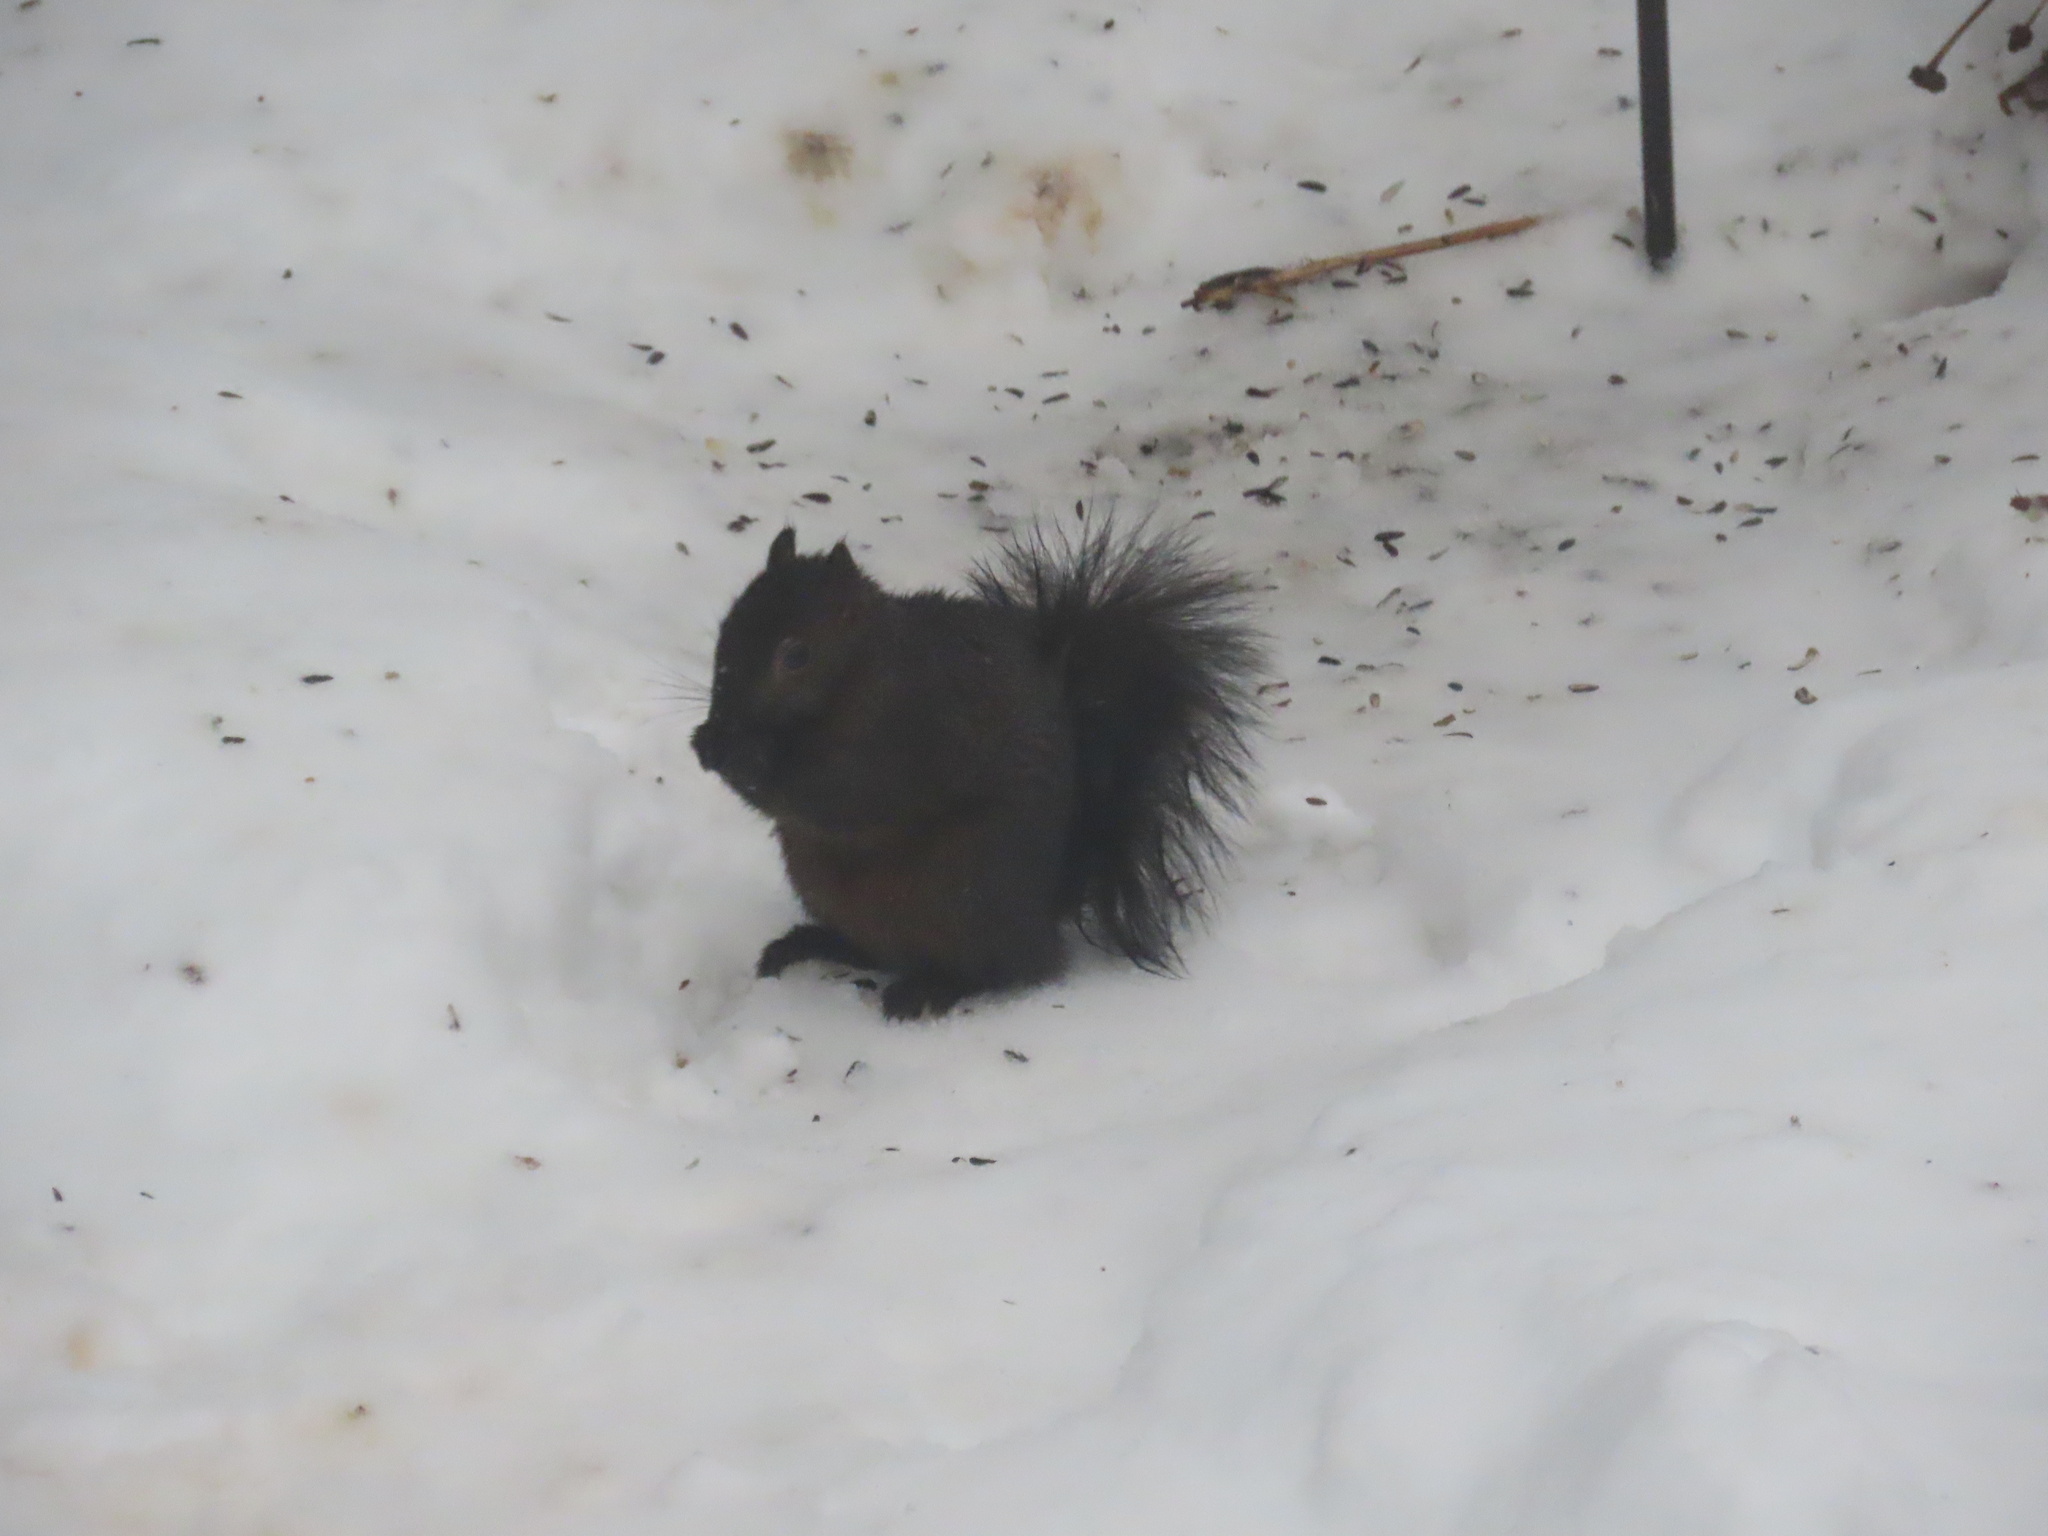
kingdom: Animalia
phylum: Chordata
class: Mammalia
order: Rodentia
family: Sciuridae
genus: Sciurus
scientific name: Sciurus carolinensis
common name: Eastern gray squirrel
